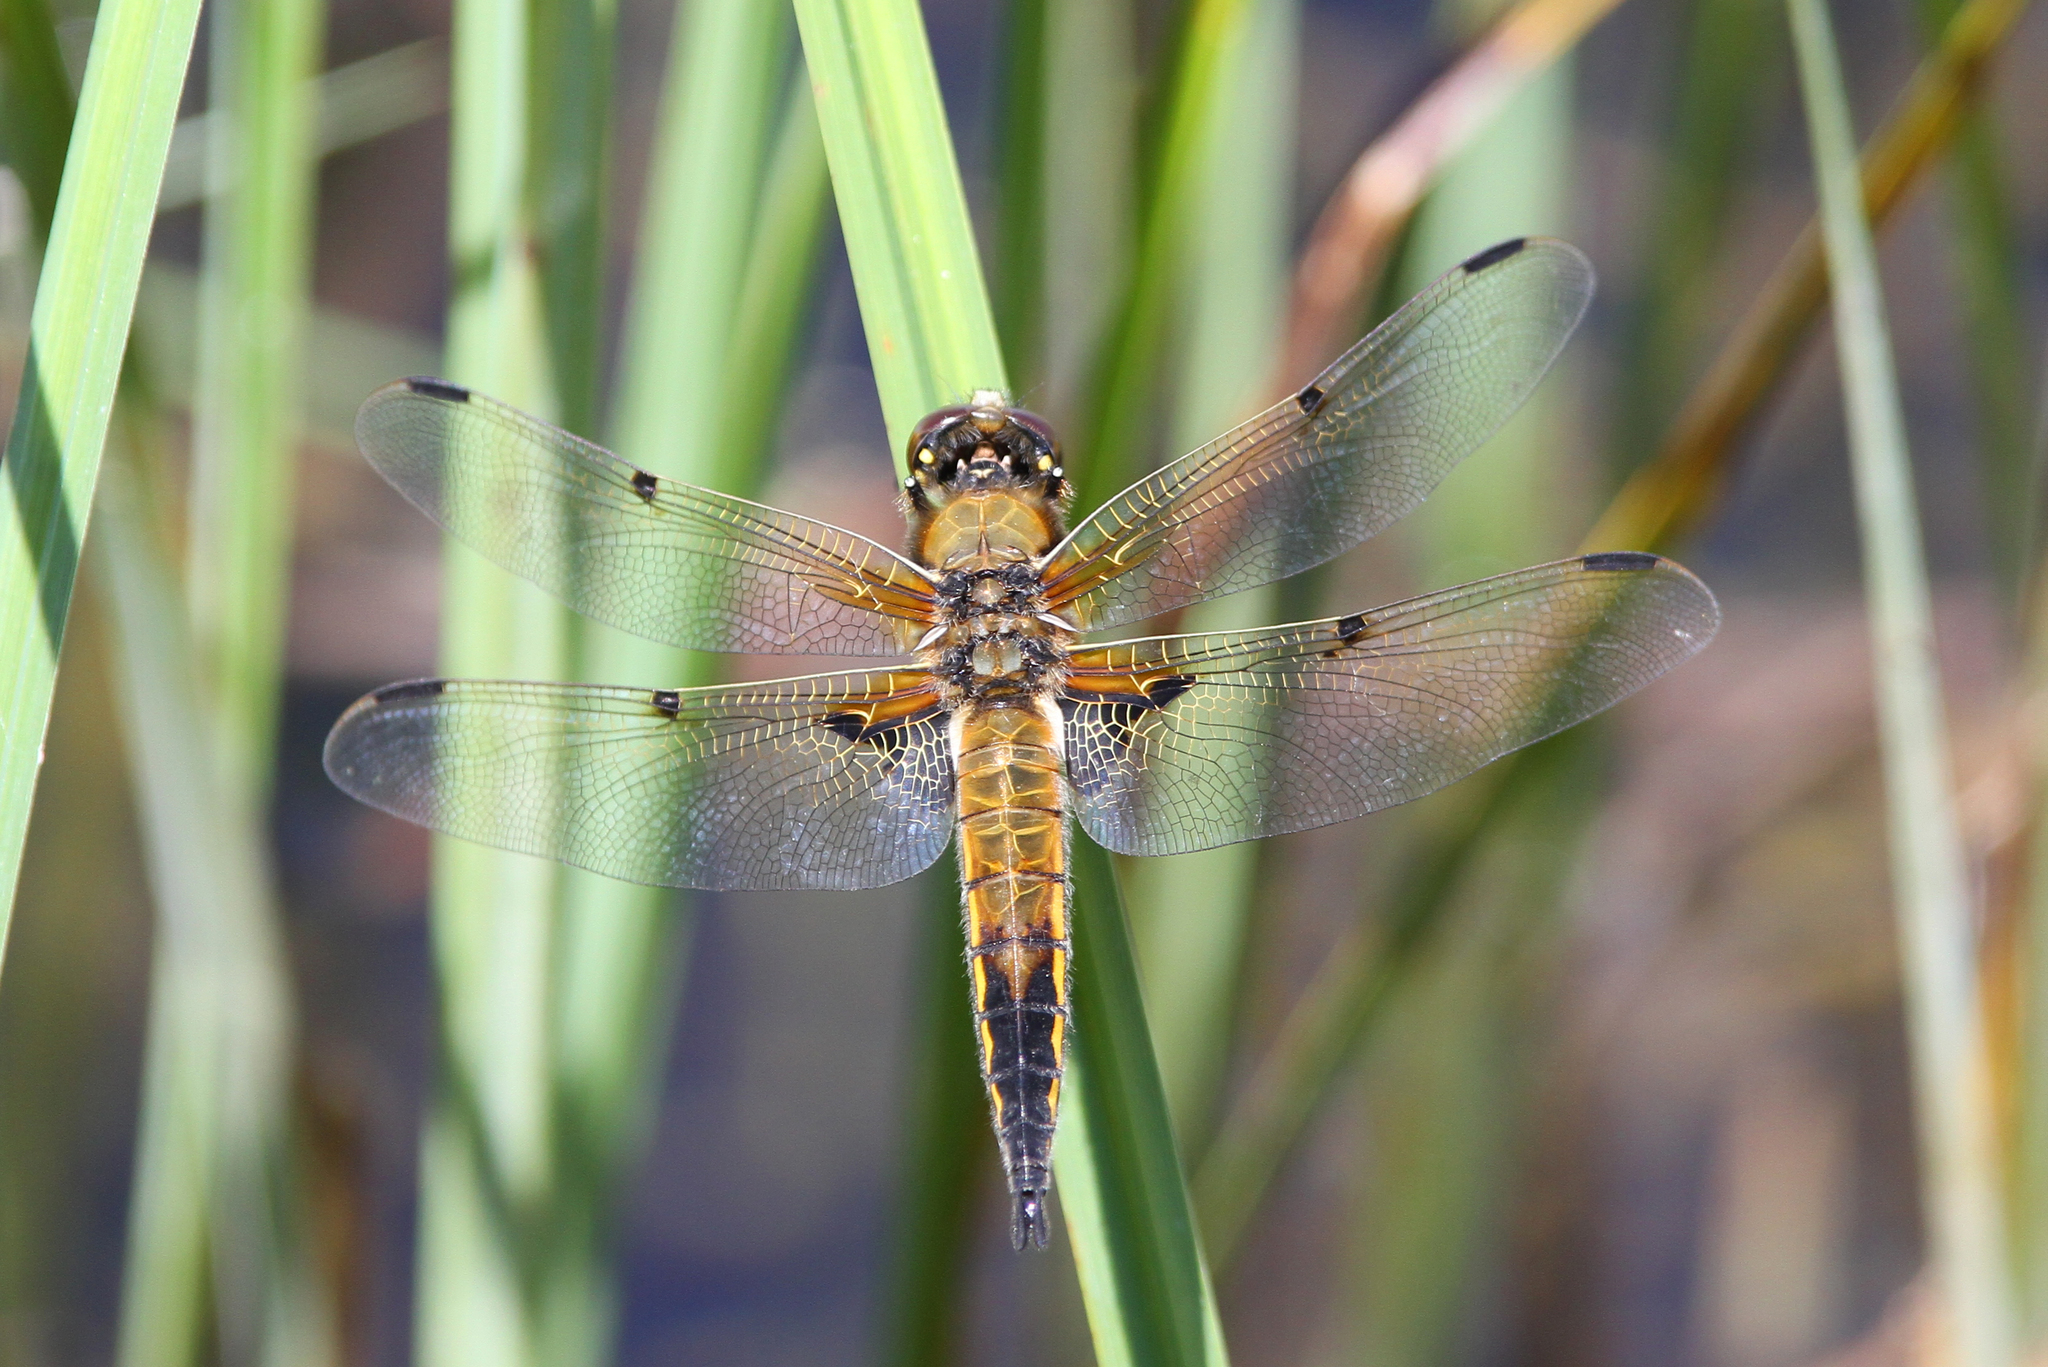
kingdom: Animalia
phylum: Arthropoda
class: Insecta
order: Odonata
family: Libellulidae
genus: Libellula
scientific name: Libellula quadrimaculata
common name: Four-spotted chaser
